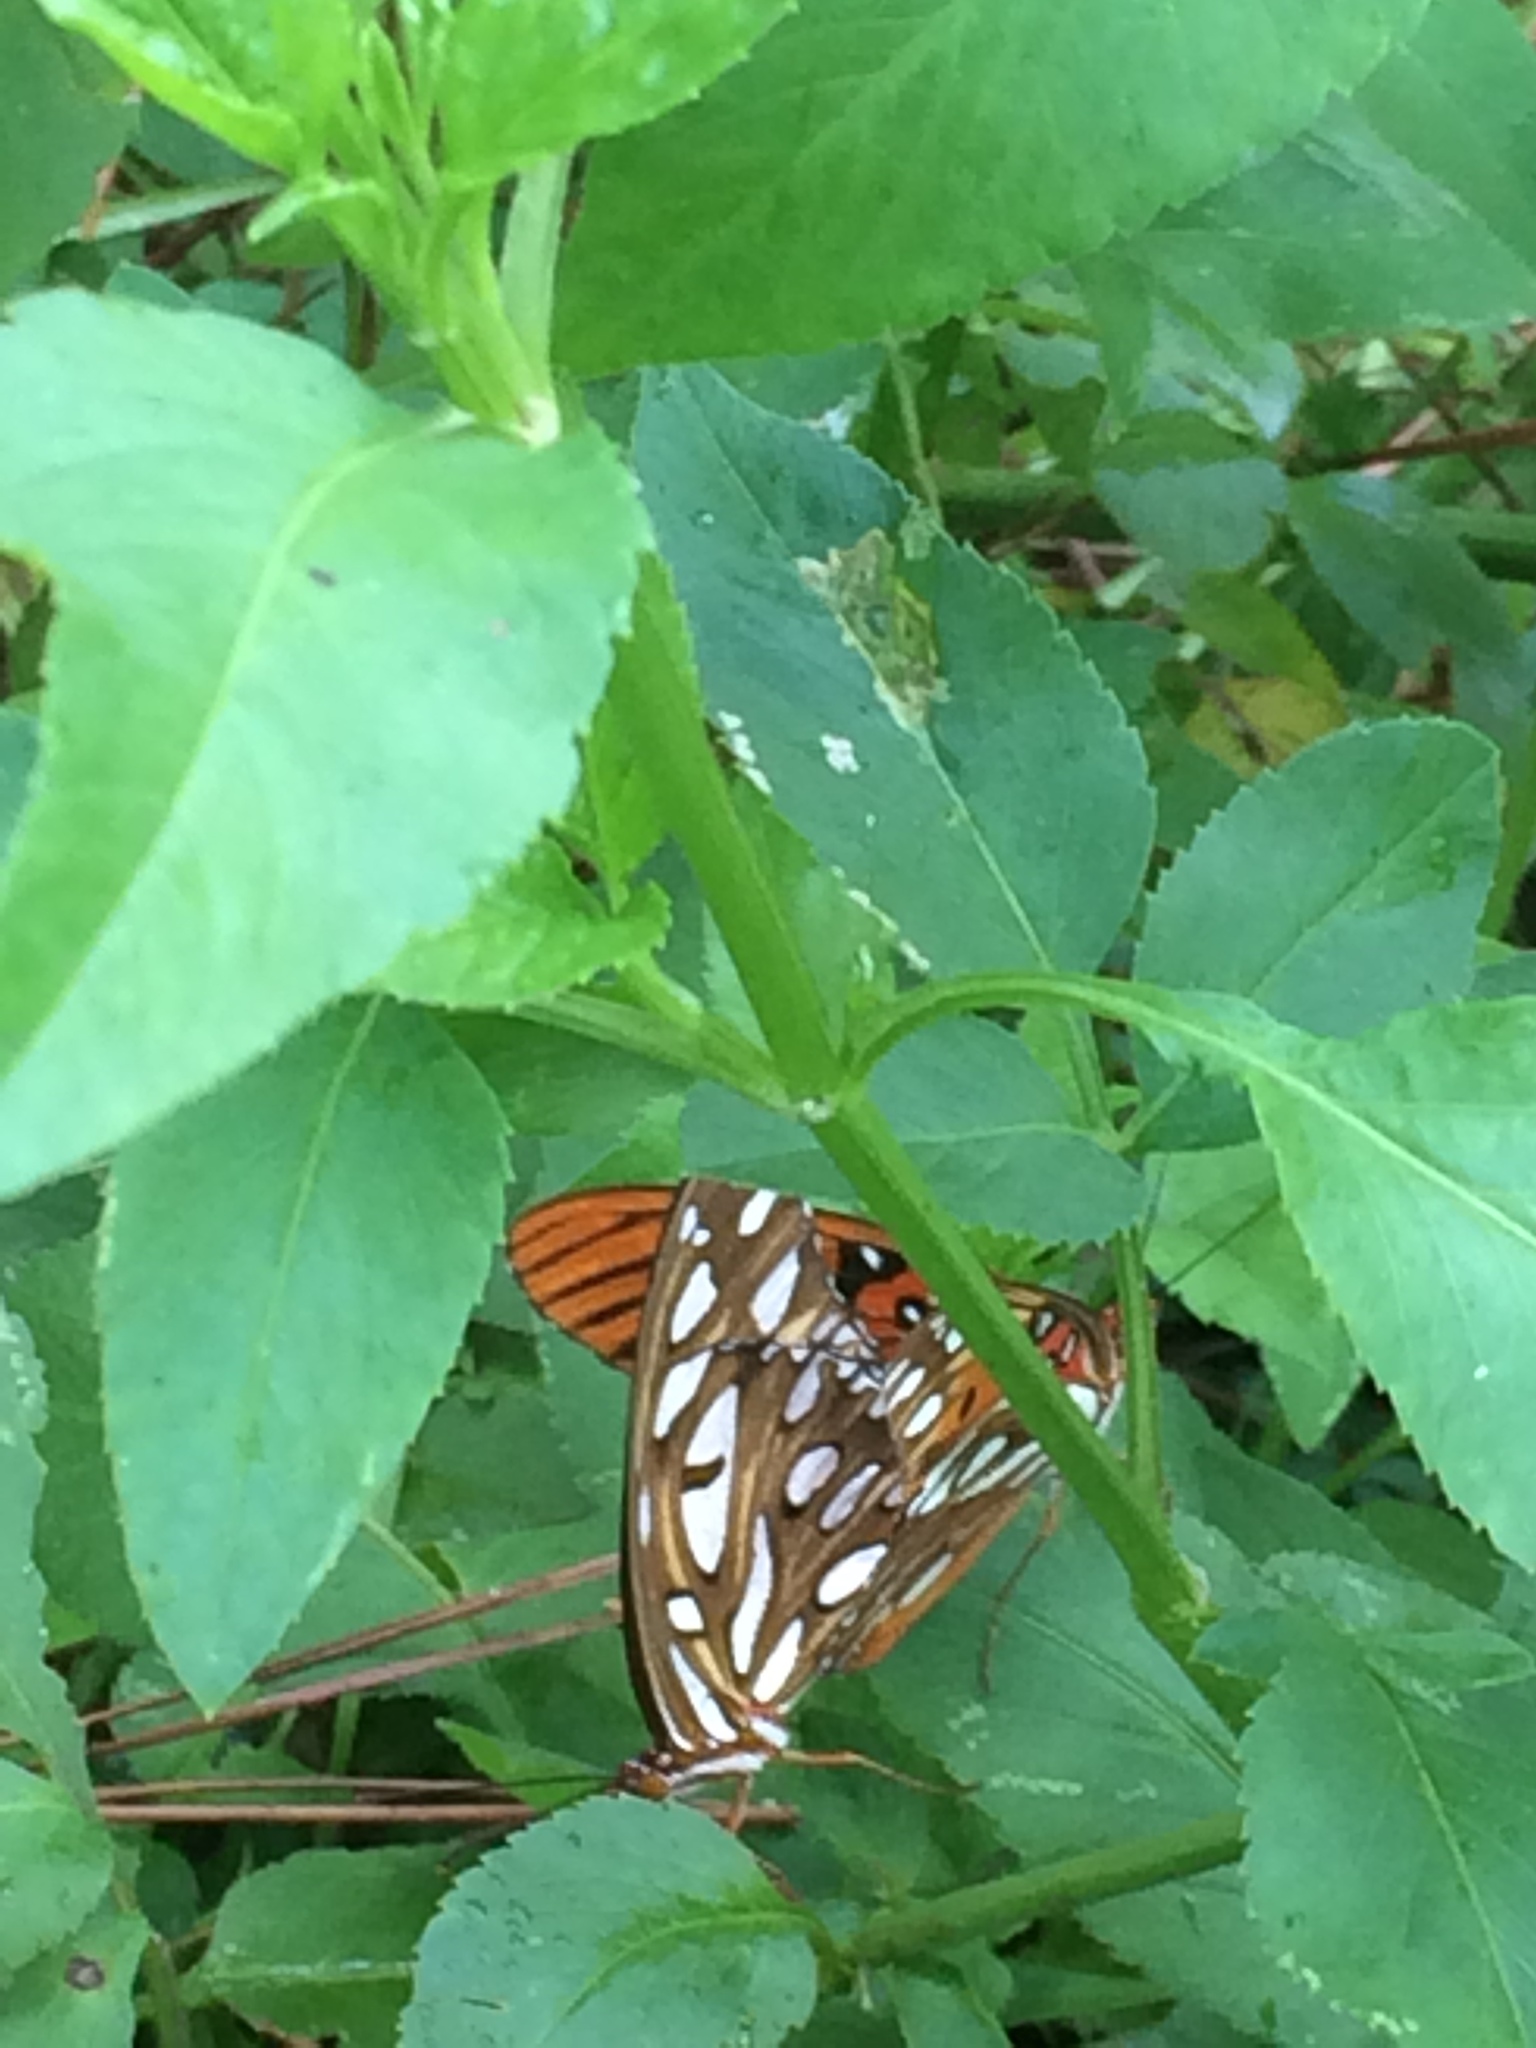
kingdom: Animalia
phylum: Arthropoda
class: Insecta
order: Lepidoptera
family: Nymphalidae
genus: Dione
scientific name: Dione vanillae
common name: Gulf fritillary
